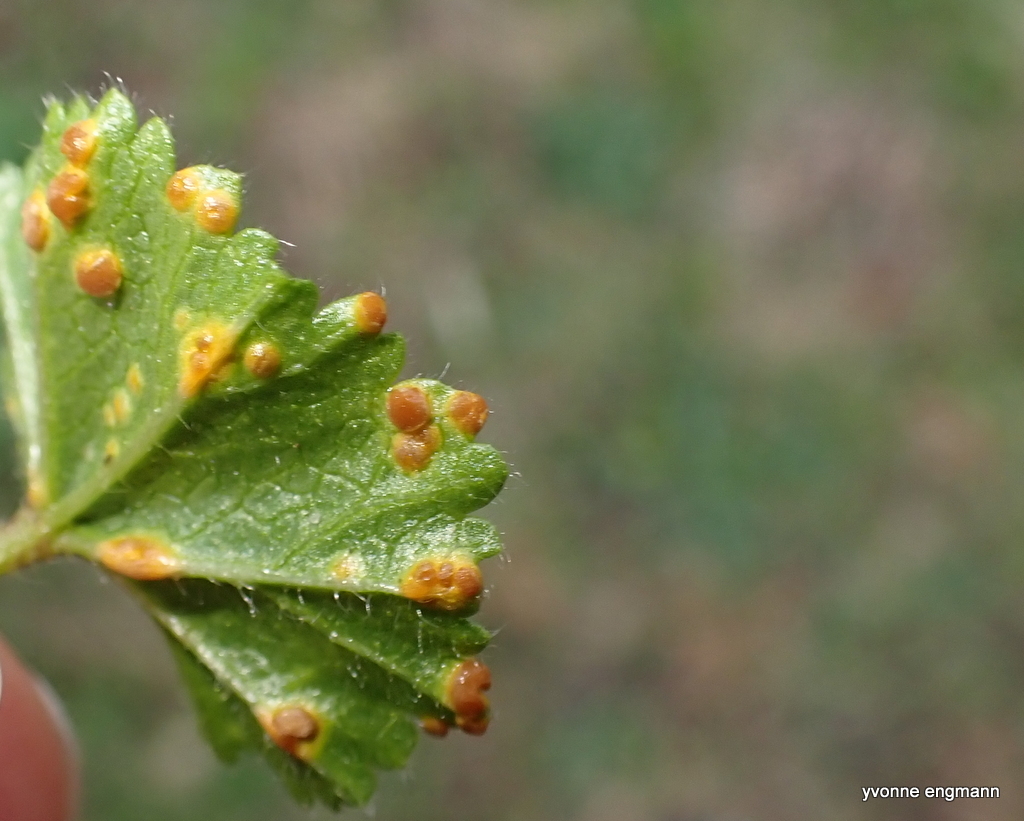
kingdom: Fungi
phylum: Basidiomycota
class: Pucciniomycetes
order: Pucciniales
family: Pucciniaceae
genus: Puccinia
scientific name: Puccinia malvacearum
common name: Hollyhock rust
